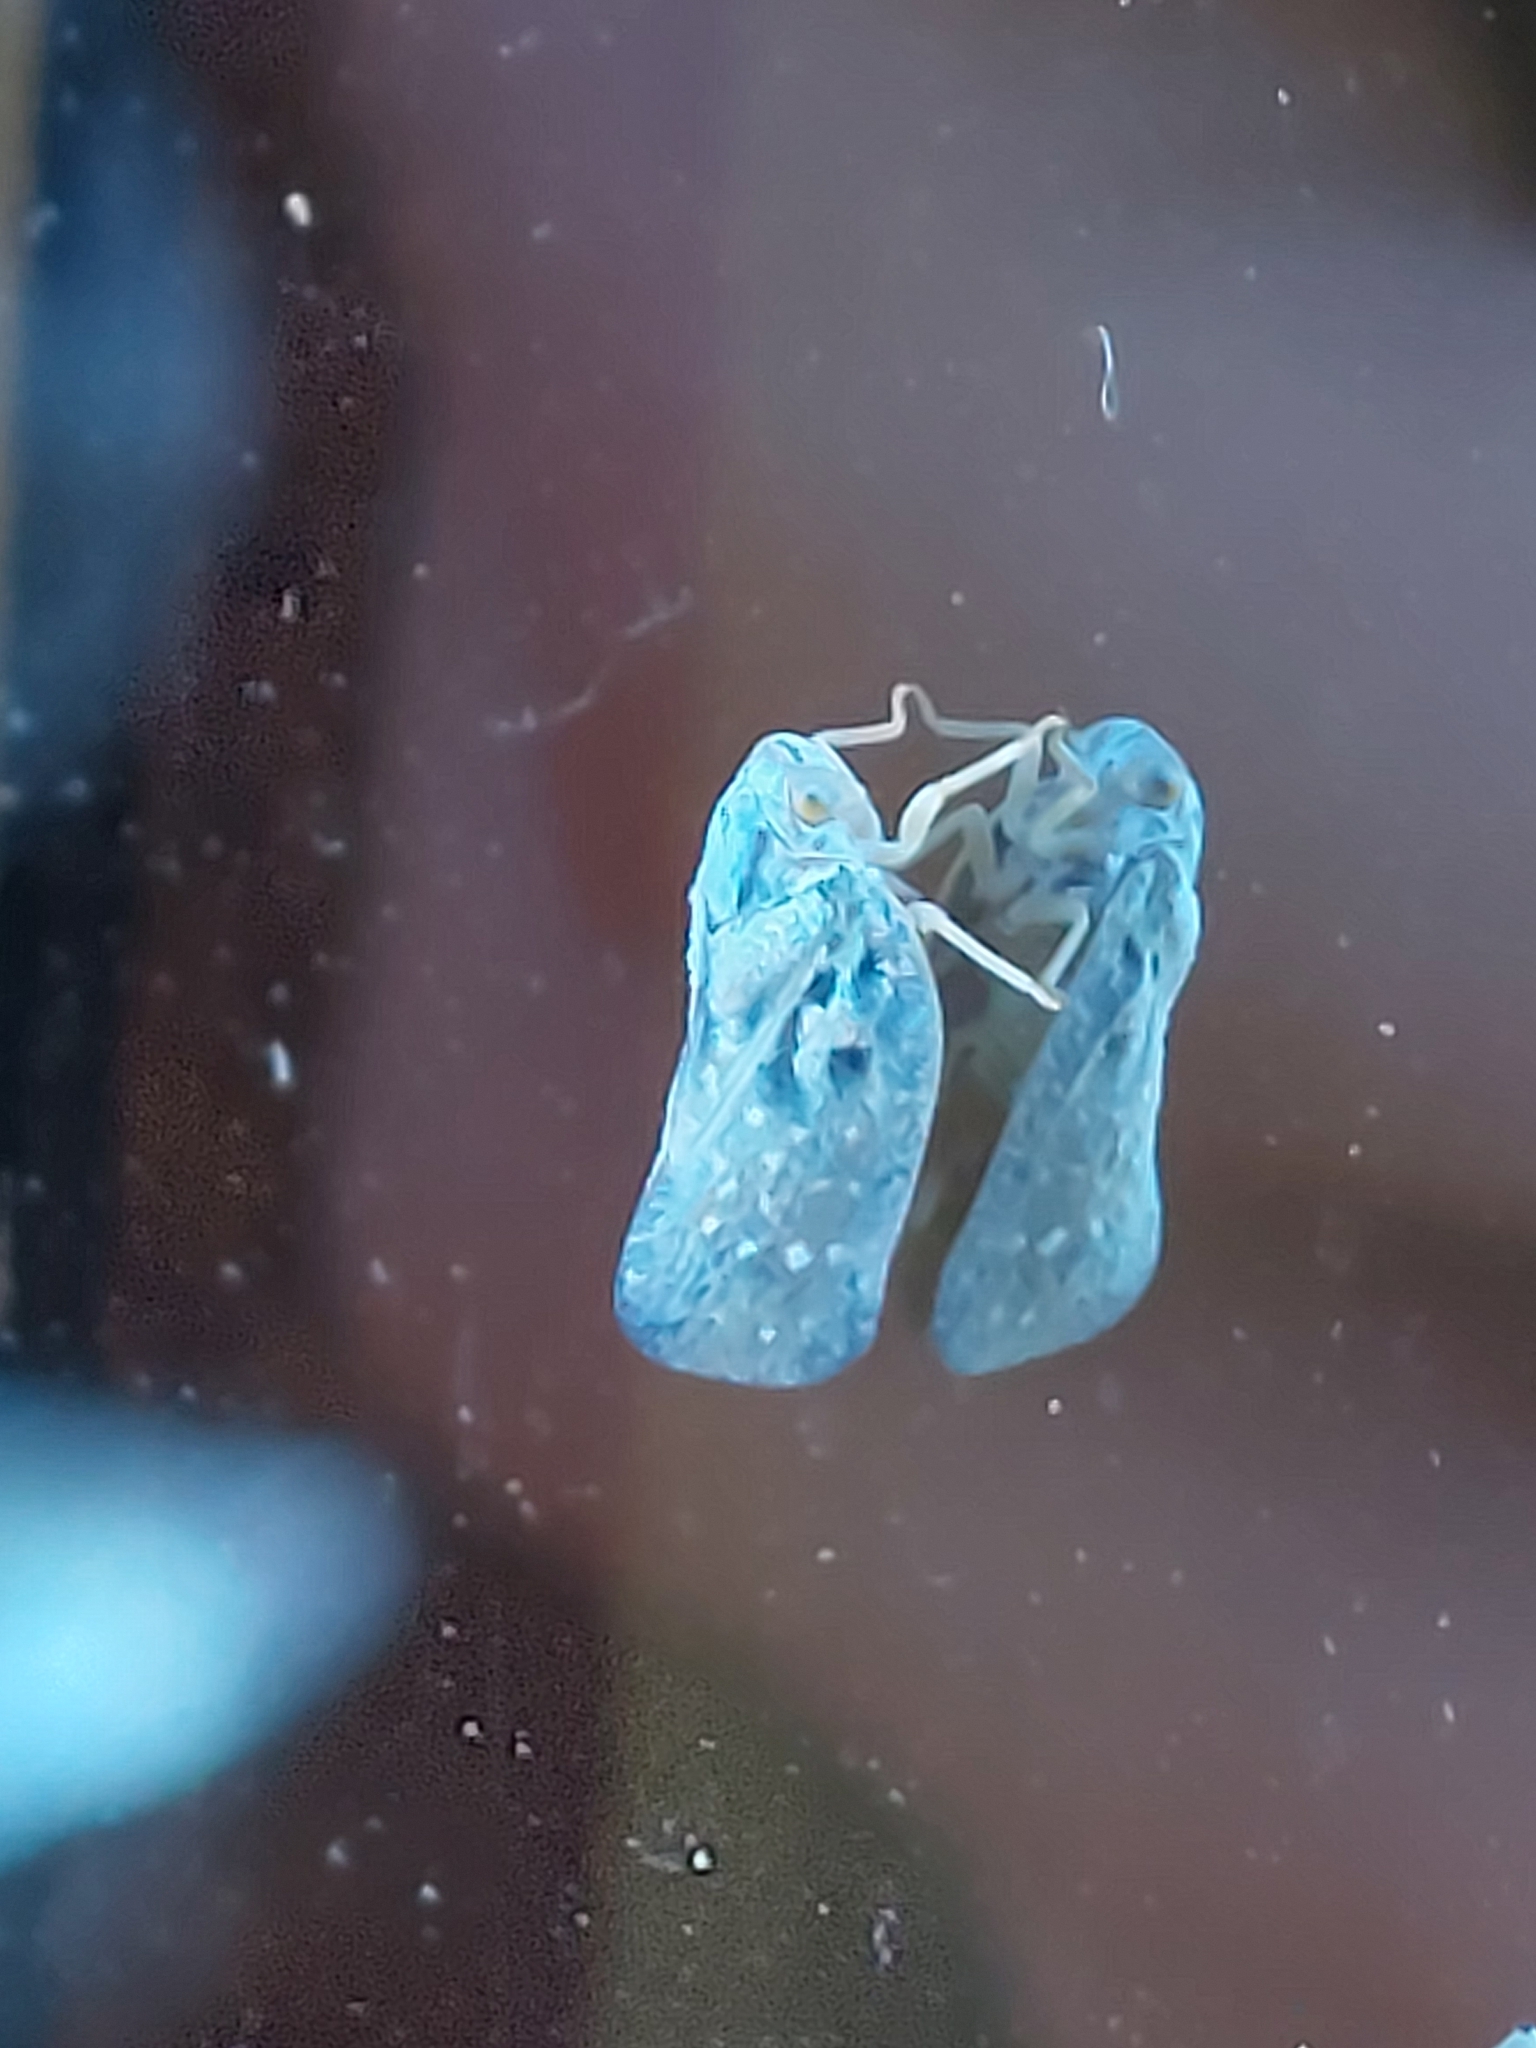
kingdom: Animalia
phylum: Arthropoda
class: Insecta
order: Hemiptera
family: Flatidae
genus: Metcalfa
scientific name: Metcalfa pruinosa
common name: Citrus flatid planthopper
